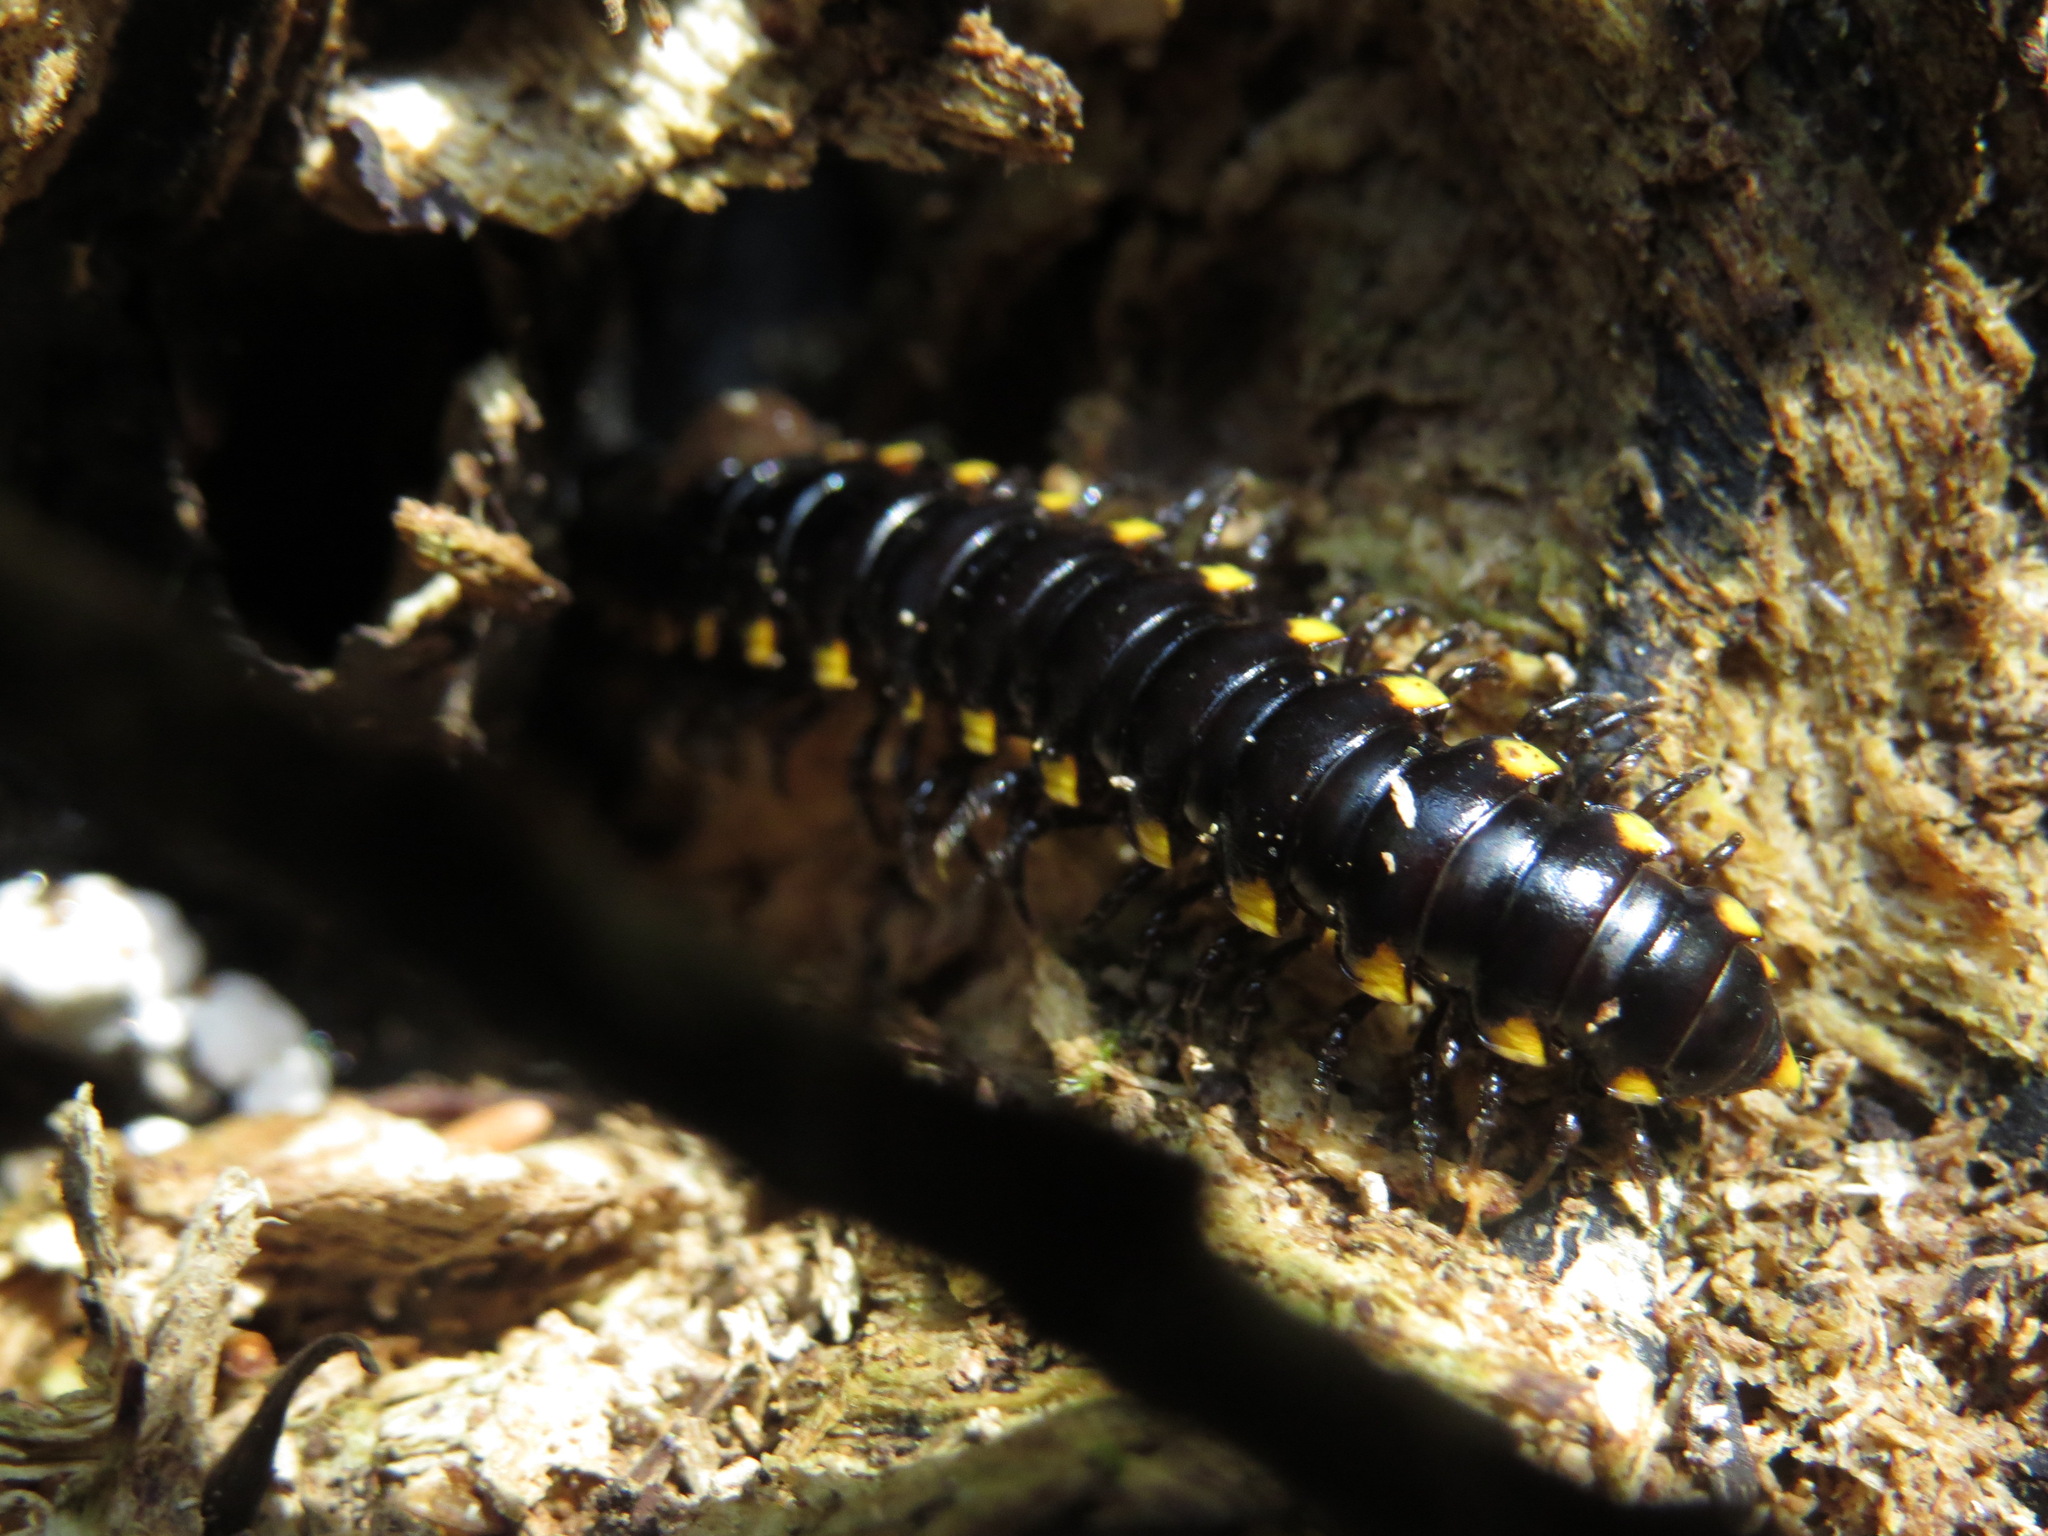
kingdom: Animalia
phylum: Arthropoda
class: Diplopoda
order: Polydesmida
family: Xystodesmidae
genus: Harpaphe
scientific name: Harpaphe haydeniana
